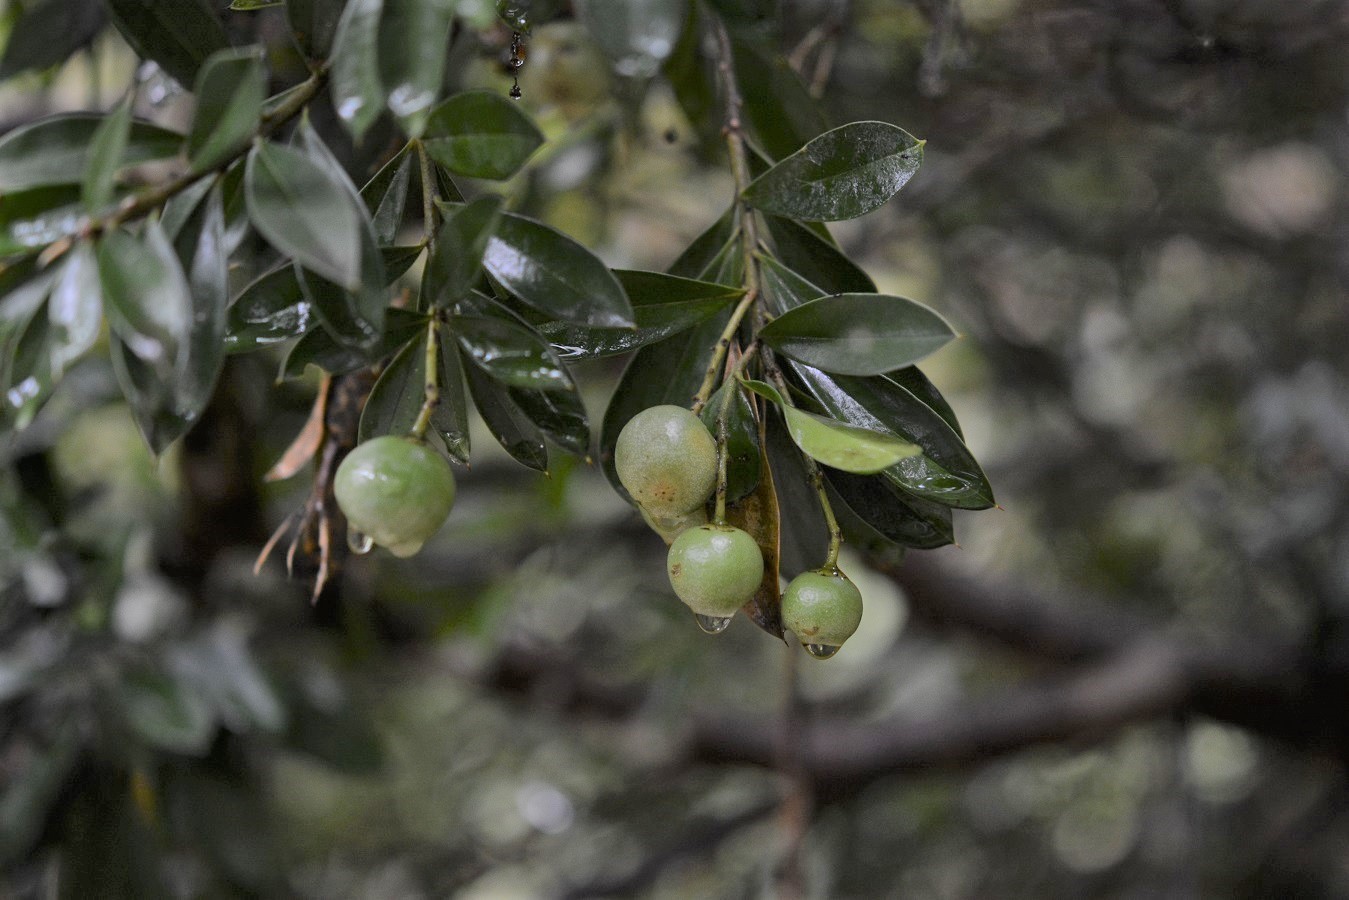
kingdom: Plantae
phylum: Tracheophyta
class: Magnoliopsida
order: Ericales
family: Primulaceae
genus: Bonellia
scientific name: Bonellia macrocarpa
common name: Primrose
